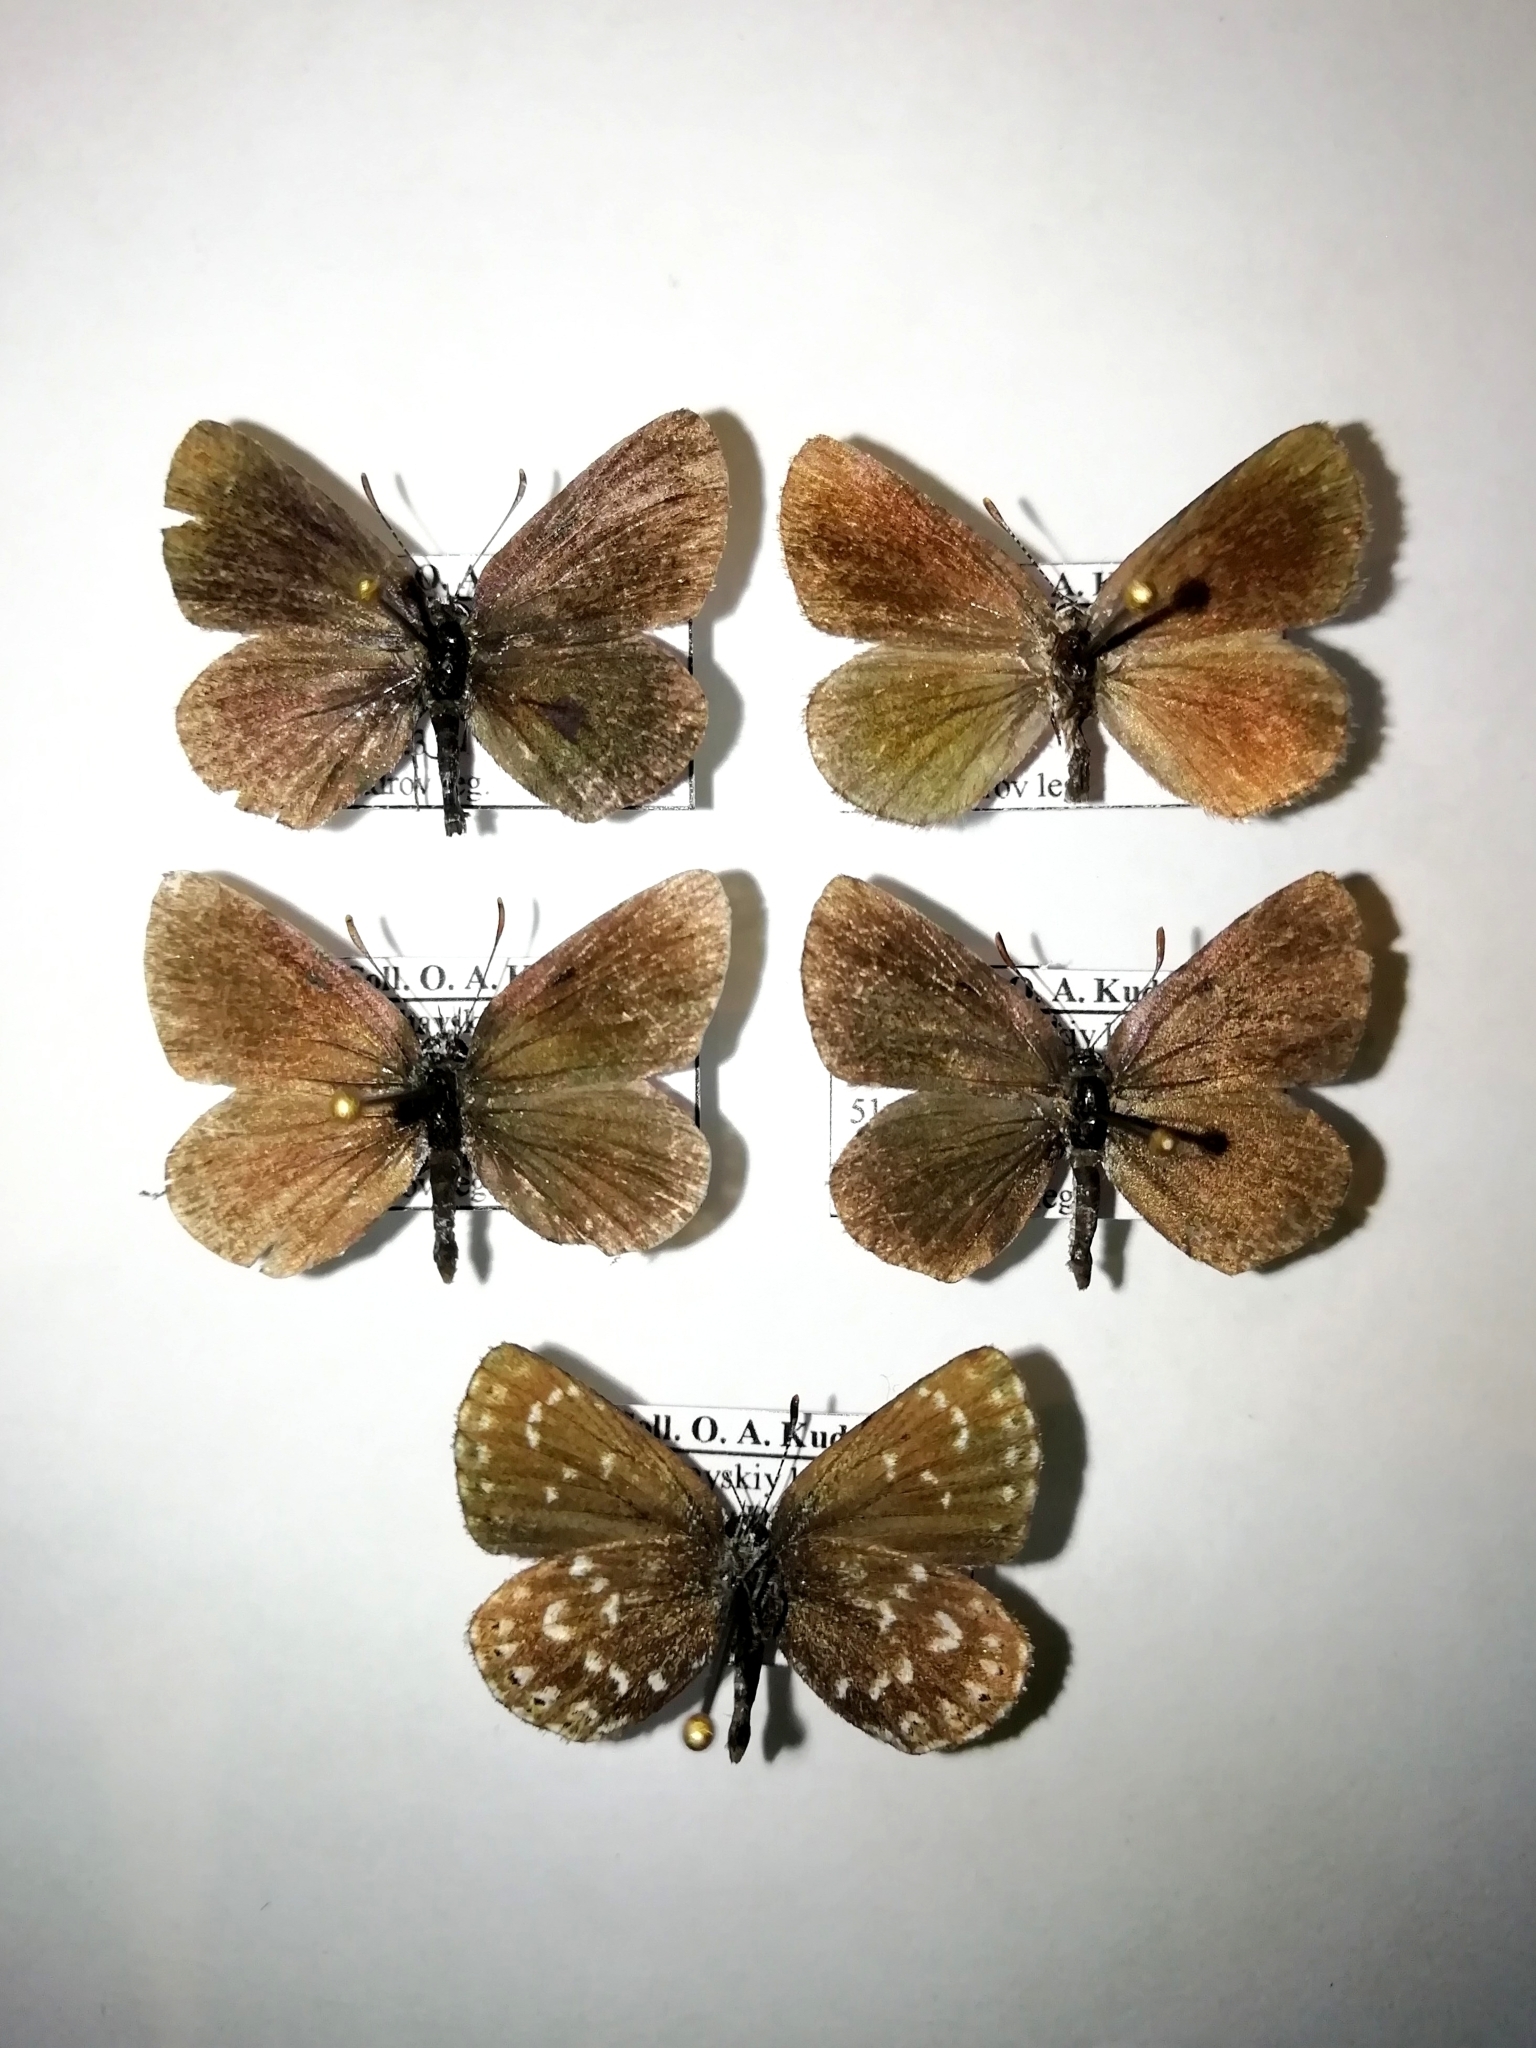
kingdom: Animalia
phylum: Arthropoda
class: Insecta
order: Lepidoptera
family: Lycaenidae
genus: Thecla
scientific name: Thecla rhymnus
